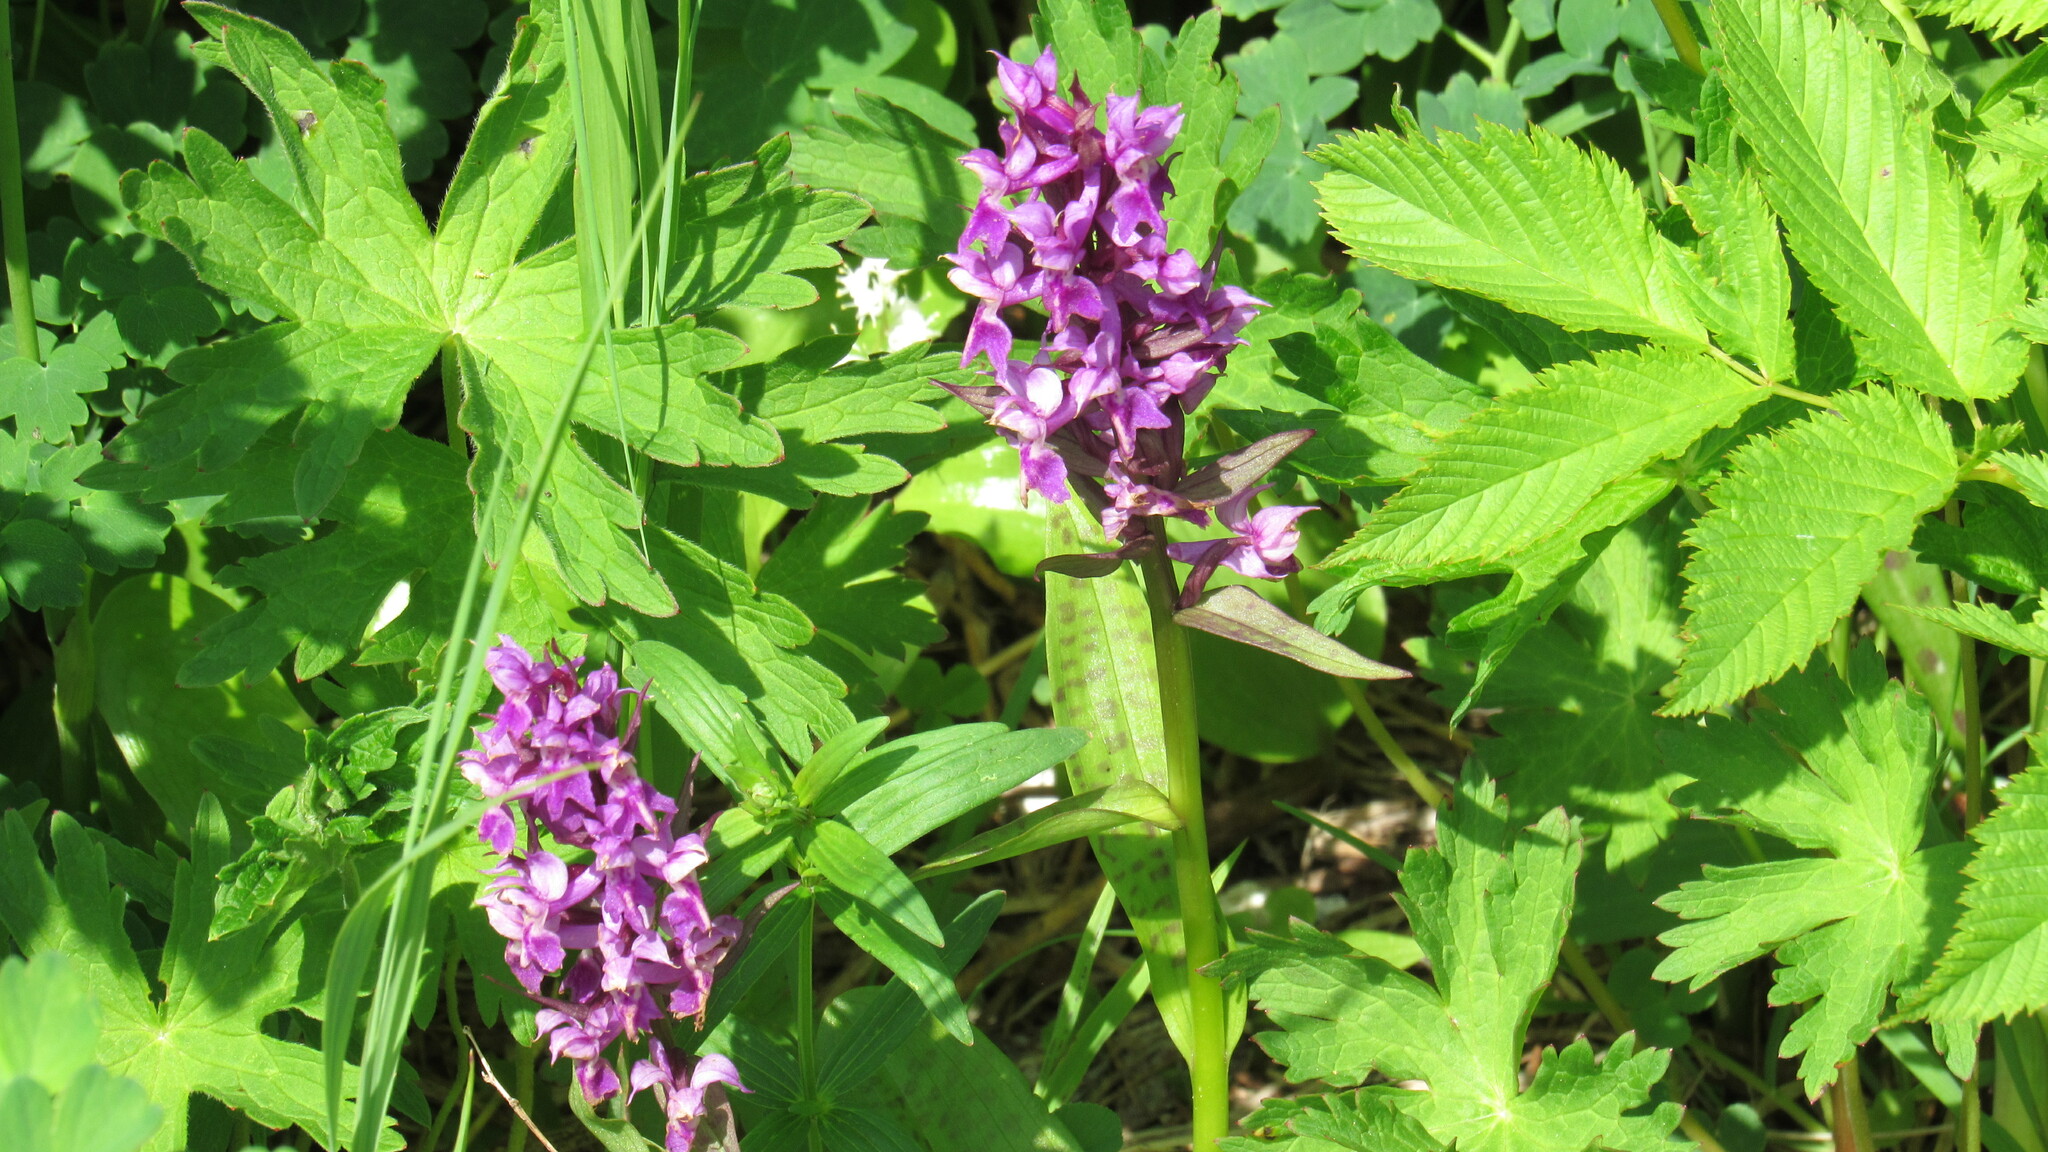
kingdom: Plantae
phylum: Tracheophyta
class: Liliopsida
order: Asparagales
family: Orchidaceae
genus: Dactylorhiza
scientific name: Dactylorhiza aristata
